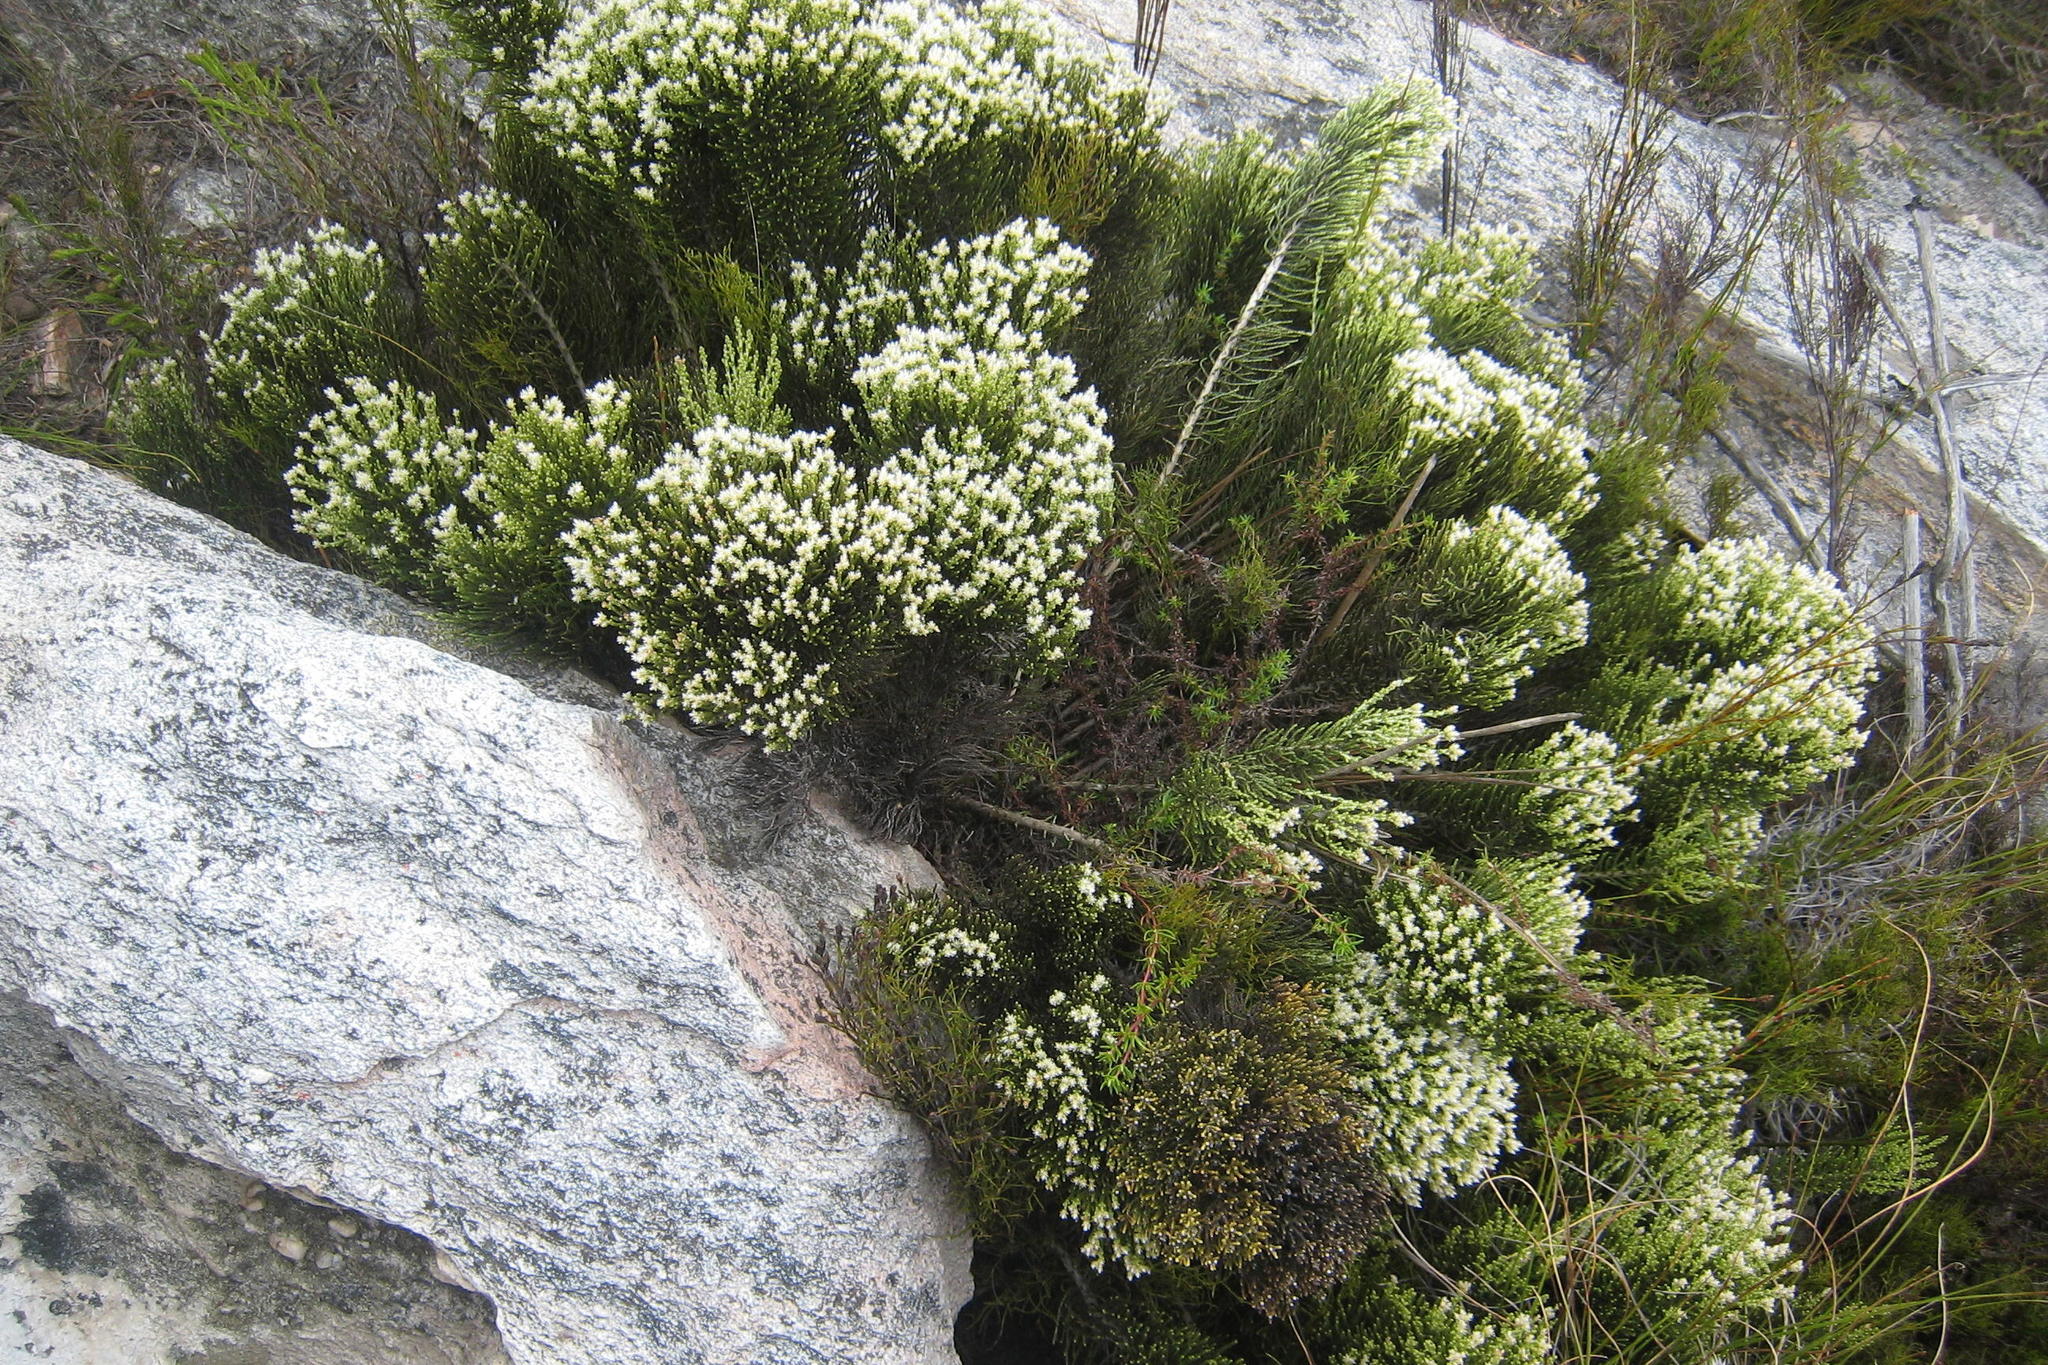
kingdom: Plantae
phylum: Tracheophyta
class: Magnoliopsida
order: Asterales
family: Asteraceae
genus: Dolichothrix
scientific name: Dolichothrix ericoides
